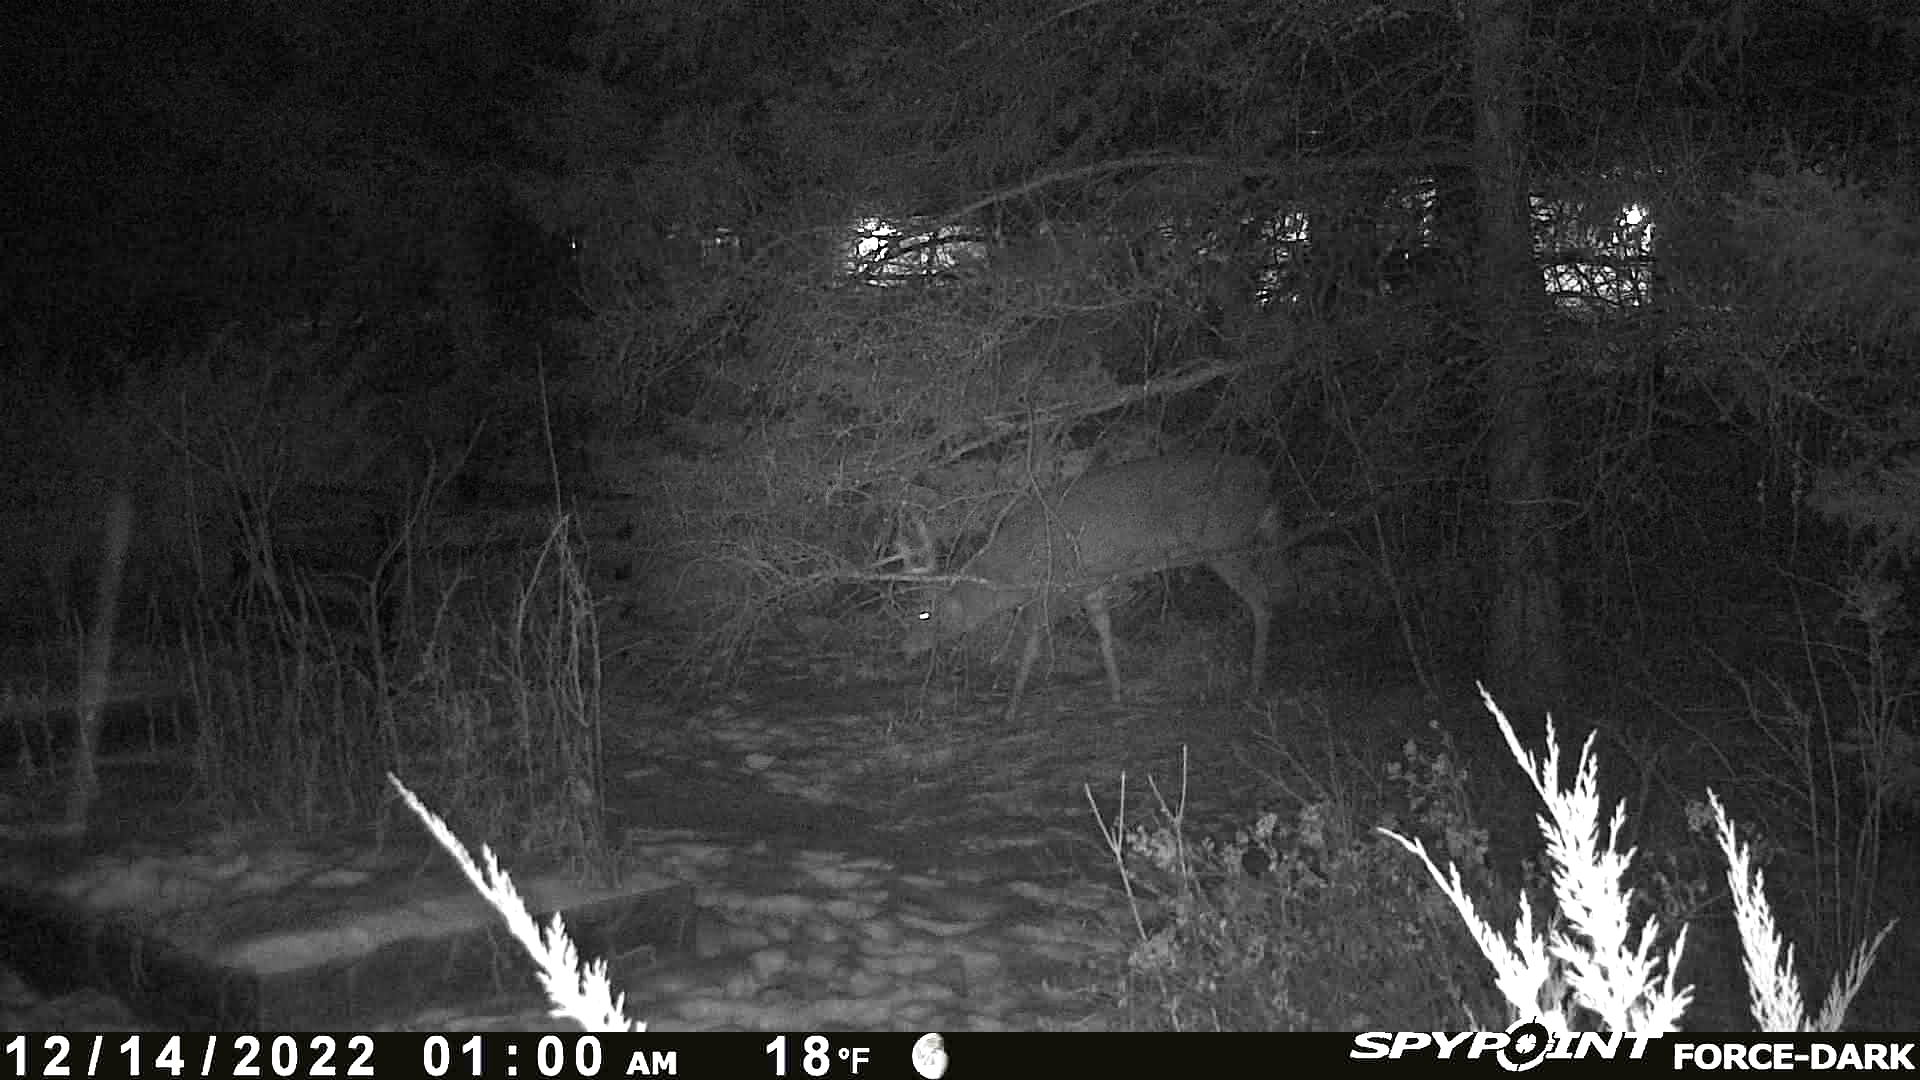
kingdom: Animalia
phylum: Chordata
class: Mammalia
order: Artiodactyla
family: Cervidae
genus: Odocoileus
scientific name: Odocoileus virginianus
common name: White-tailed deer
